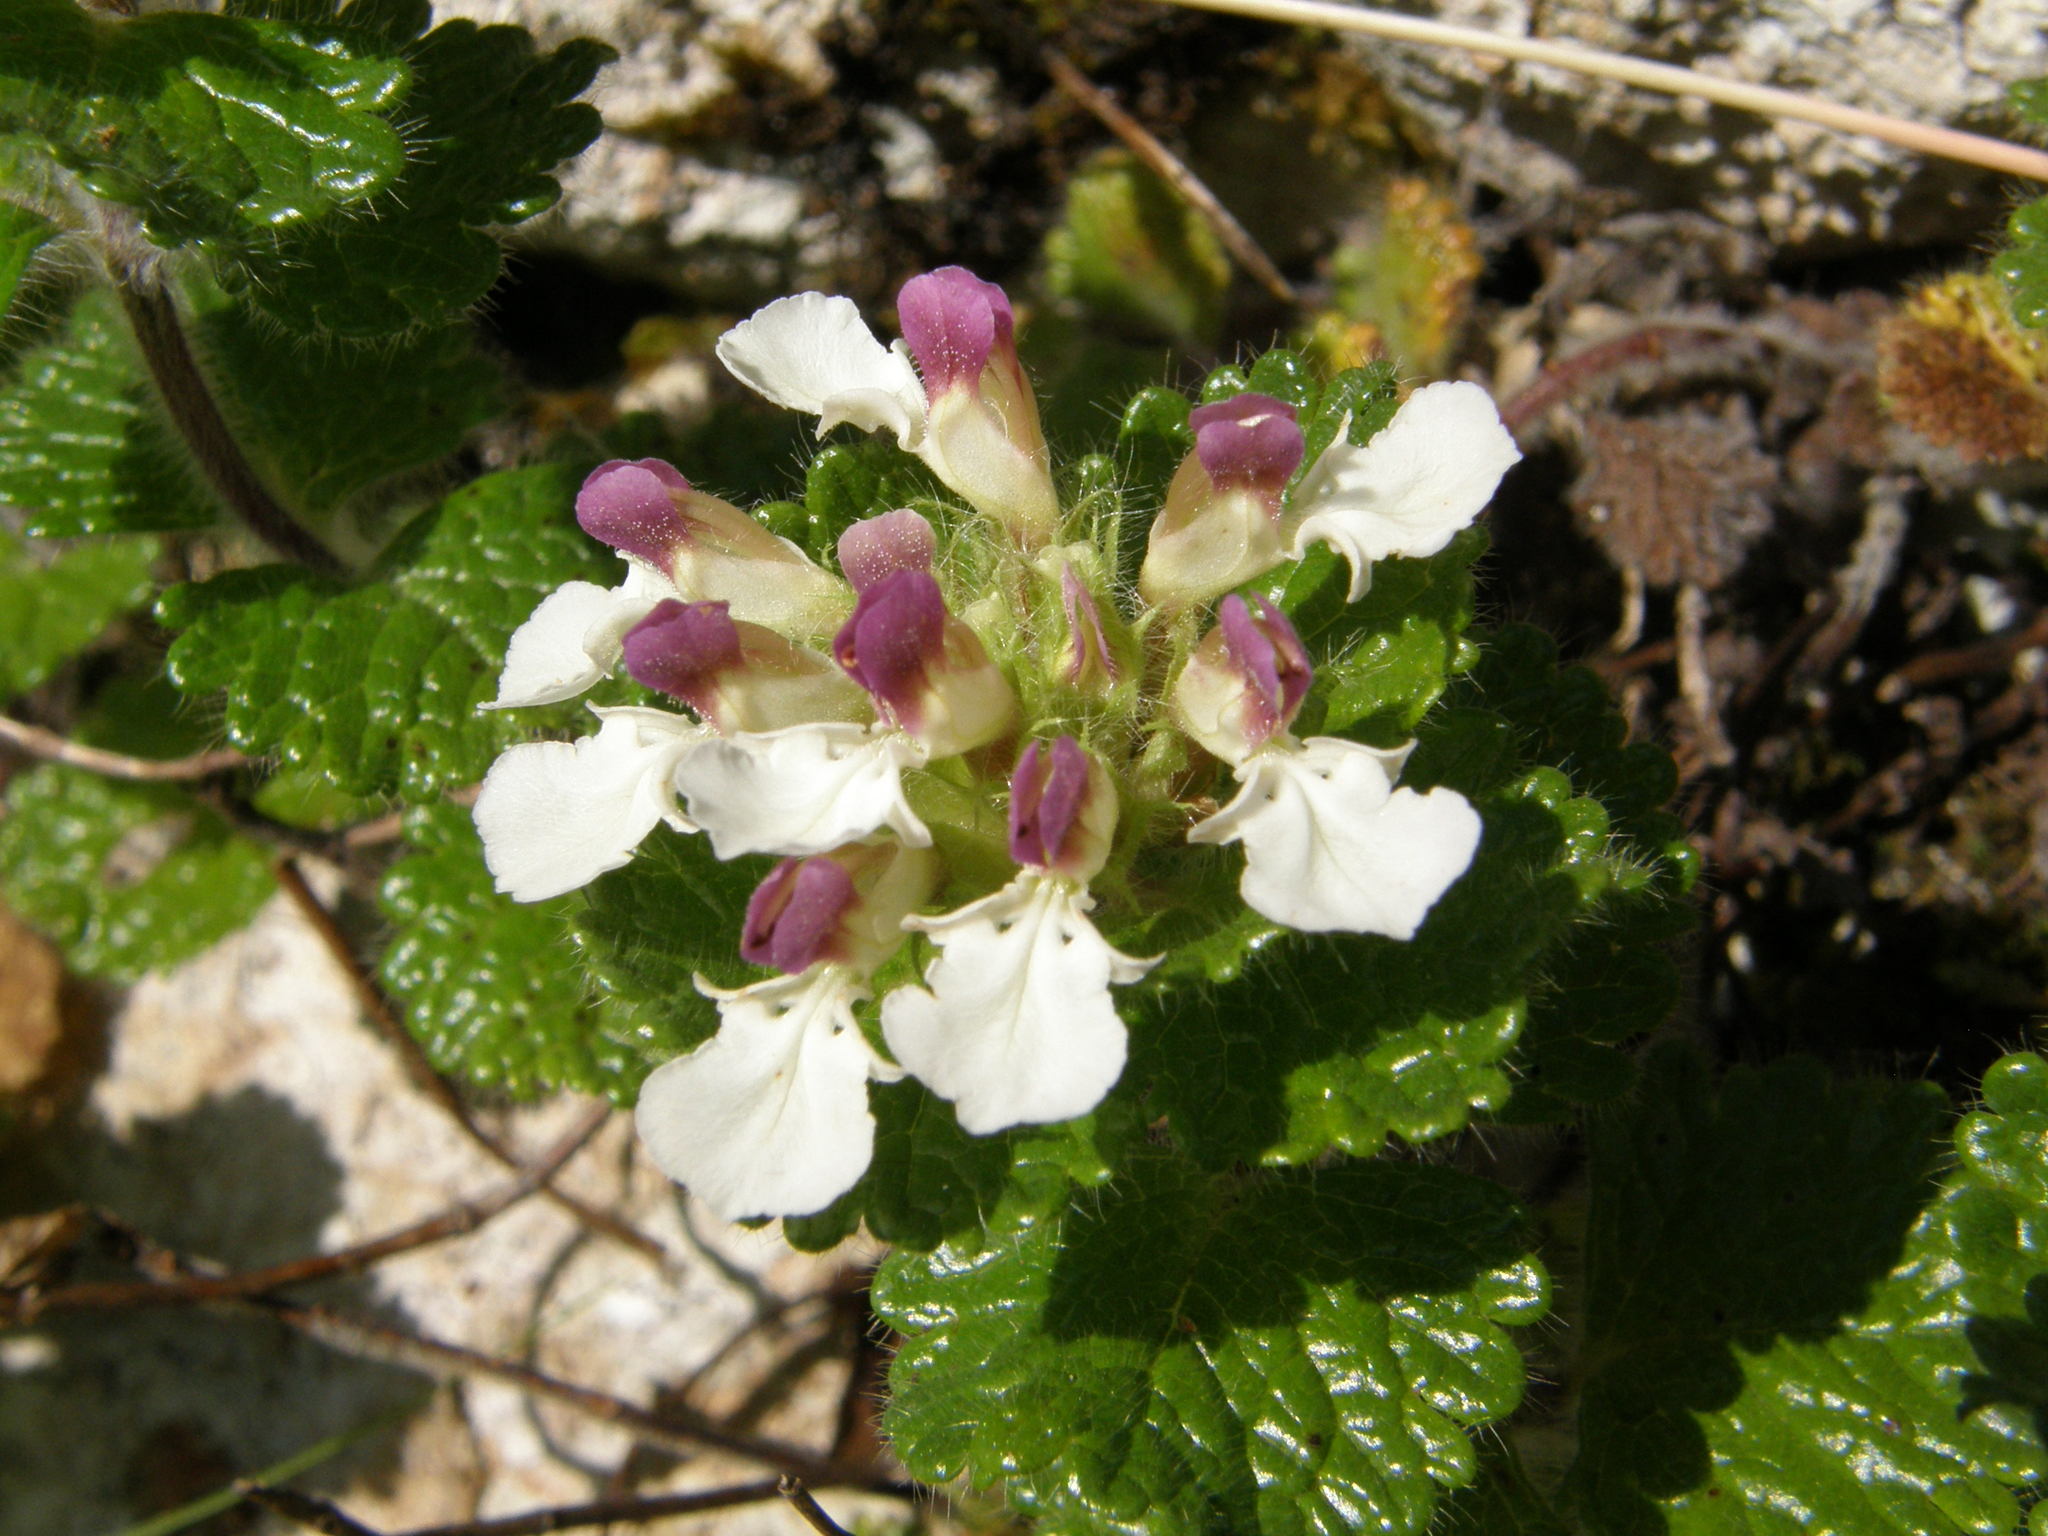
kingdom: Plantae
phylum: Tracheophyta
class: Magnoliopsida
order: Lamiales
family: Lamiaceae
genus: Teucrium
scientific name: Teucrium pyrenaicum
